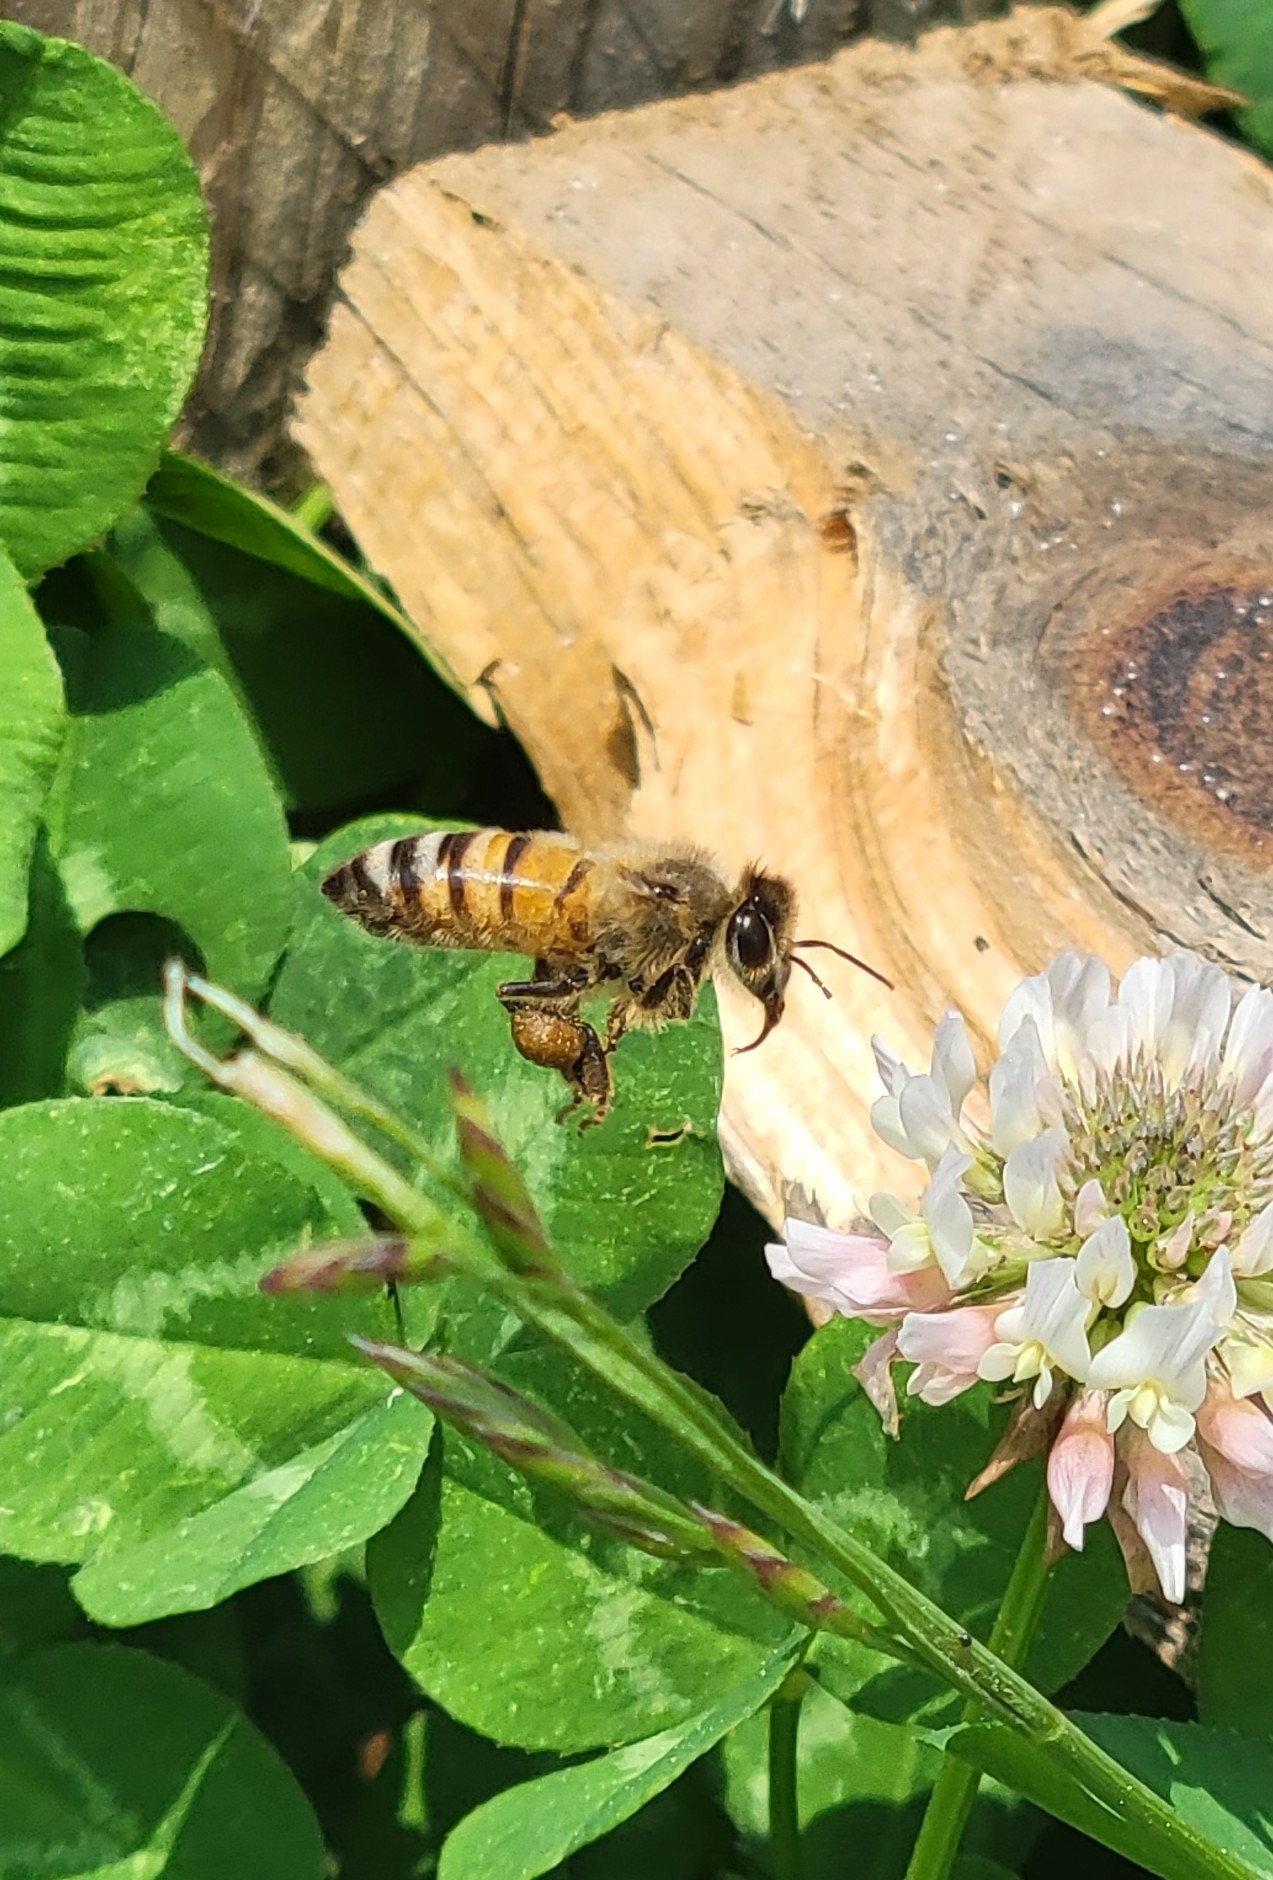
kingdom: Animalia
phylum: Arthropoda
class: Insecta
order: Hymenoptera
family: Apidae
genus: Apis
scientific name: Apis mellifera
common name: Honey bee
